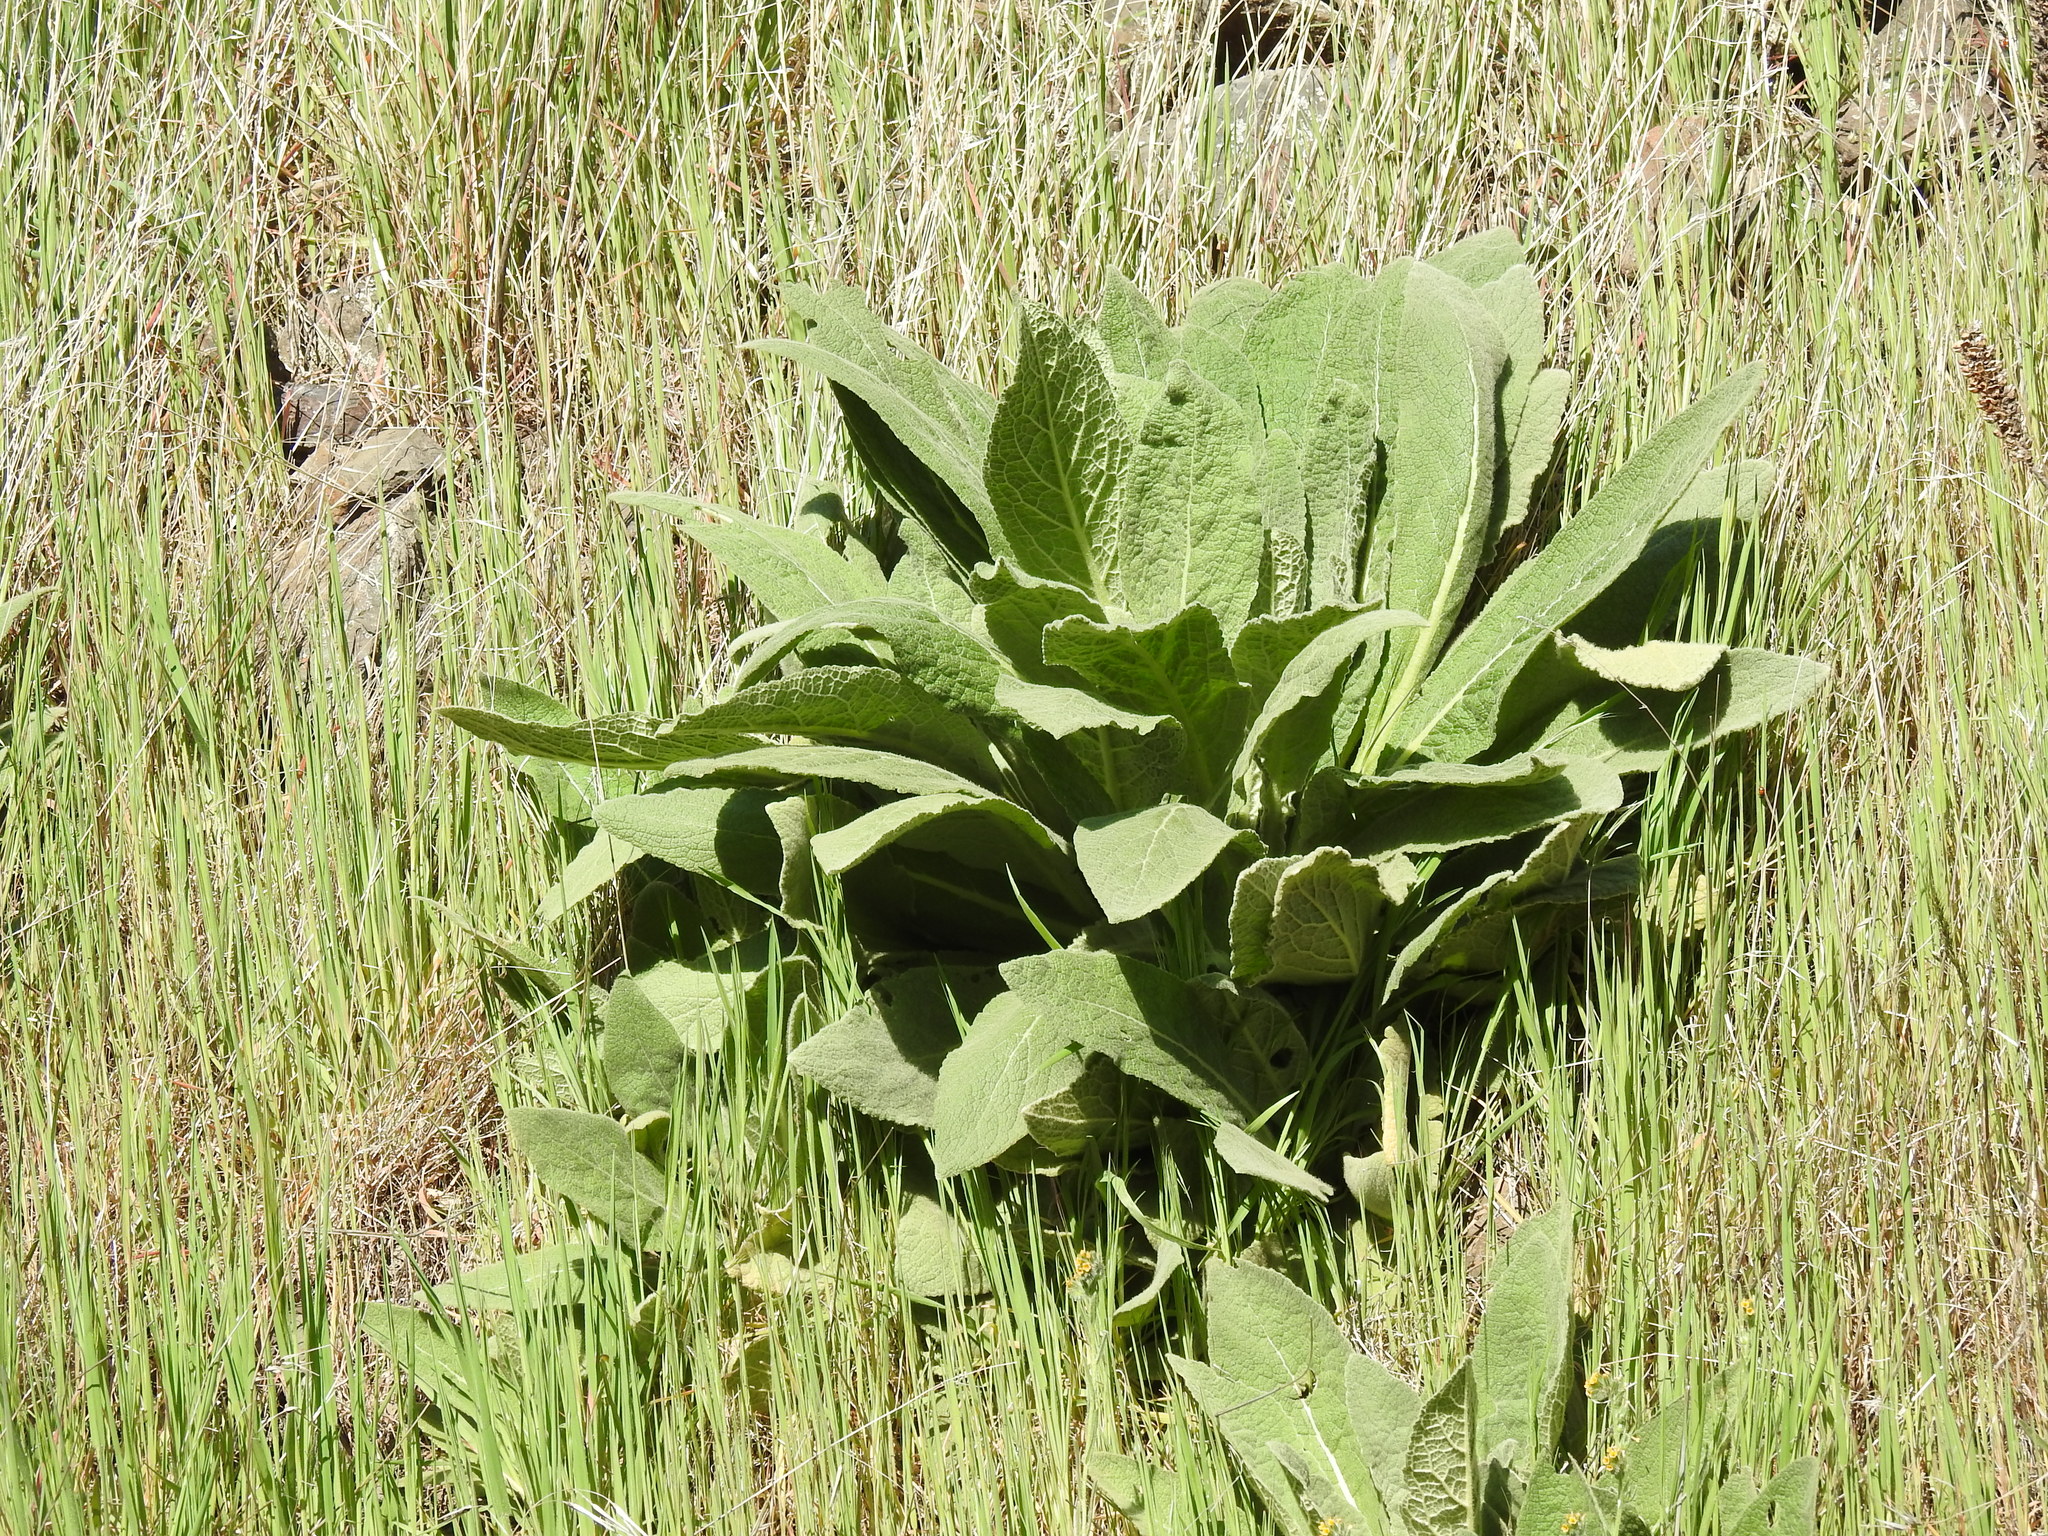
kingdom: Plantae
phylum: Tracheophyta
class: Magnoliopsida
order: Lamiales
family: Scrophulariaceae
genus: Verbascum
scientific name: Verbascum thapsus
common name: Common mullein
